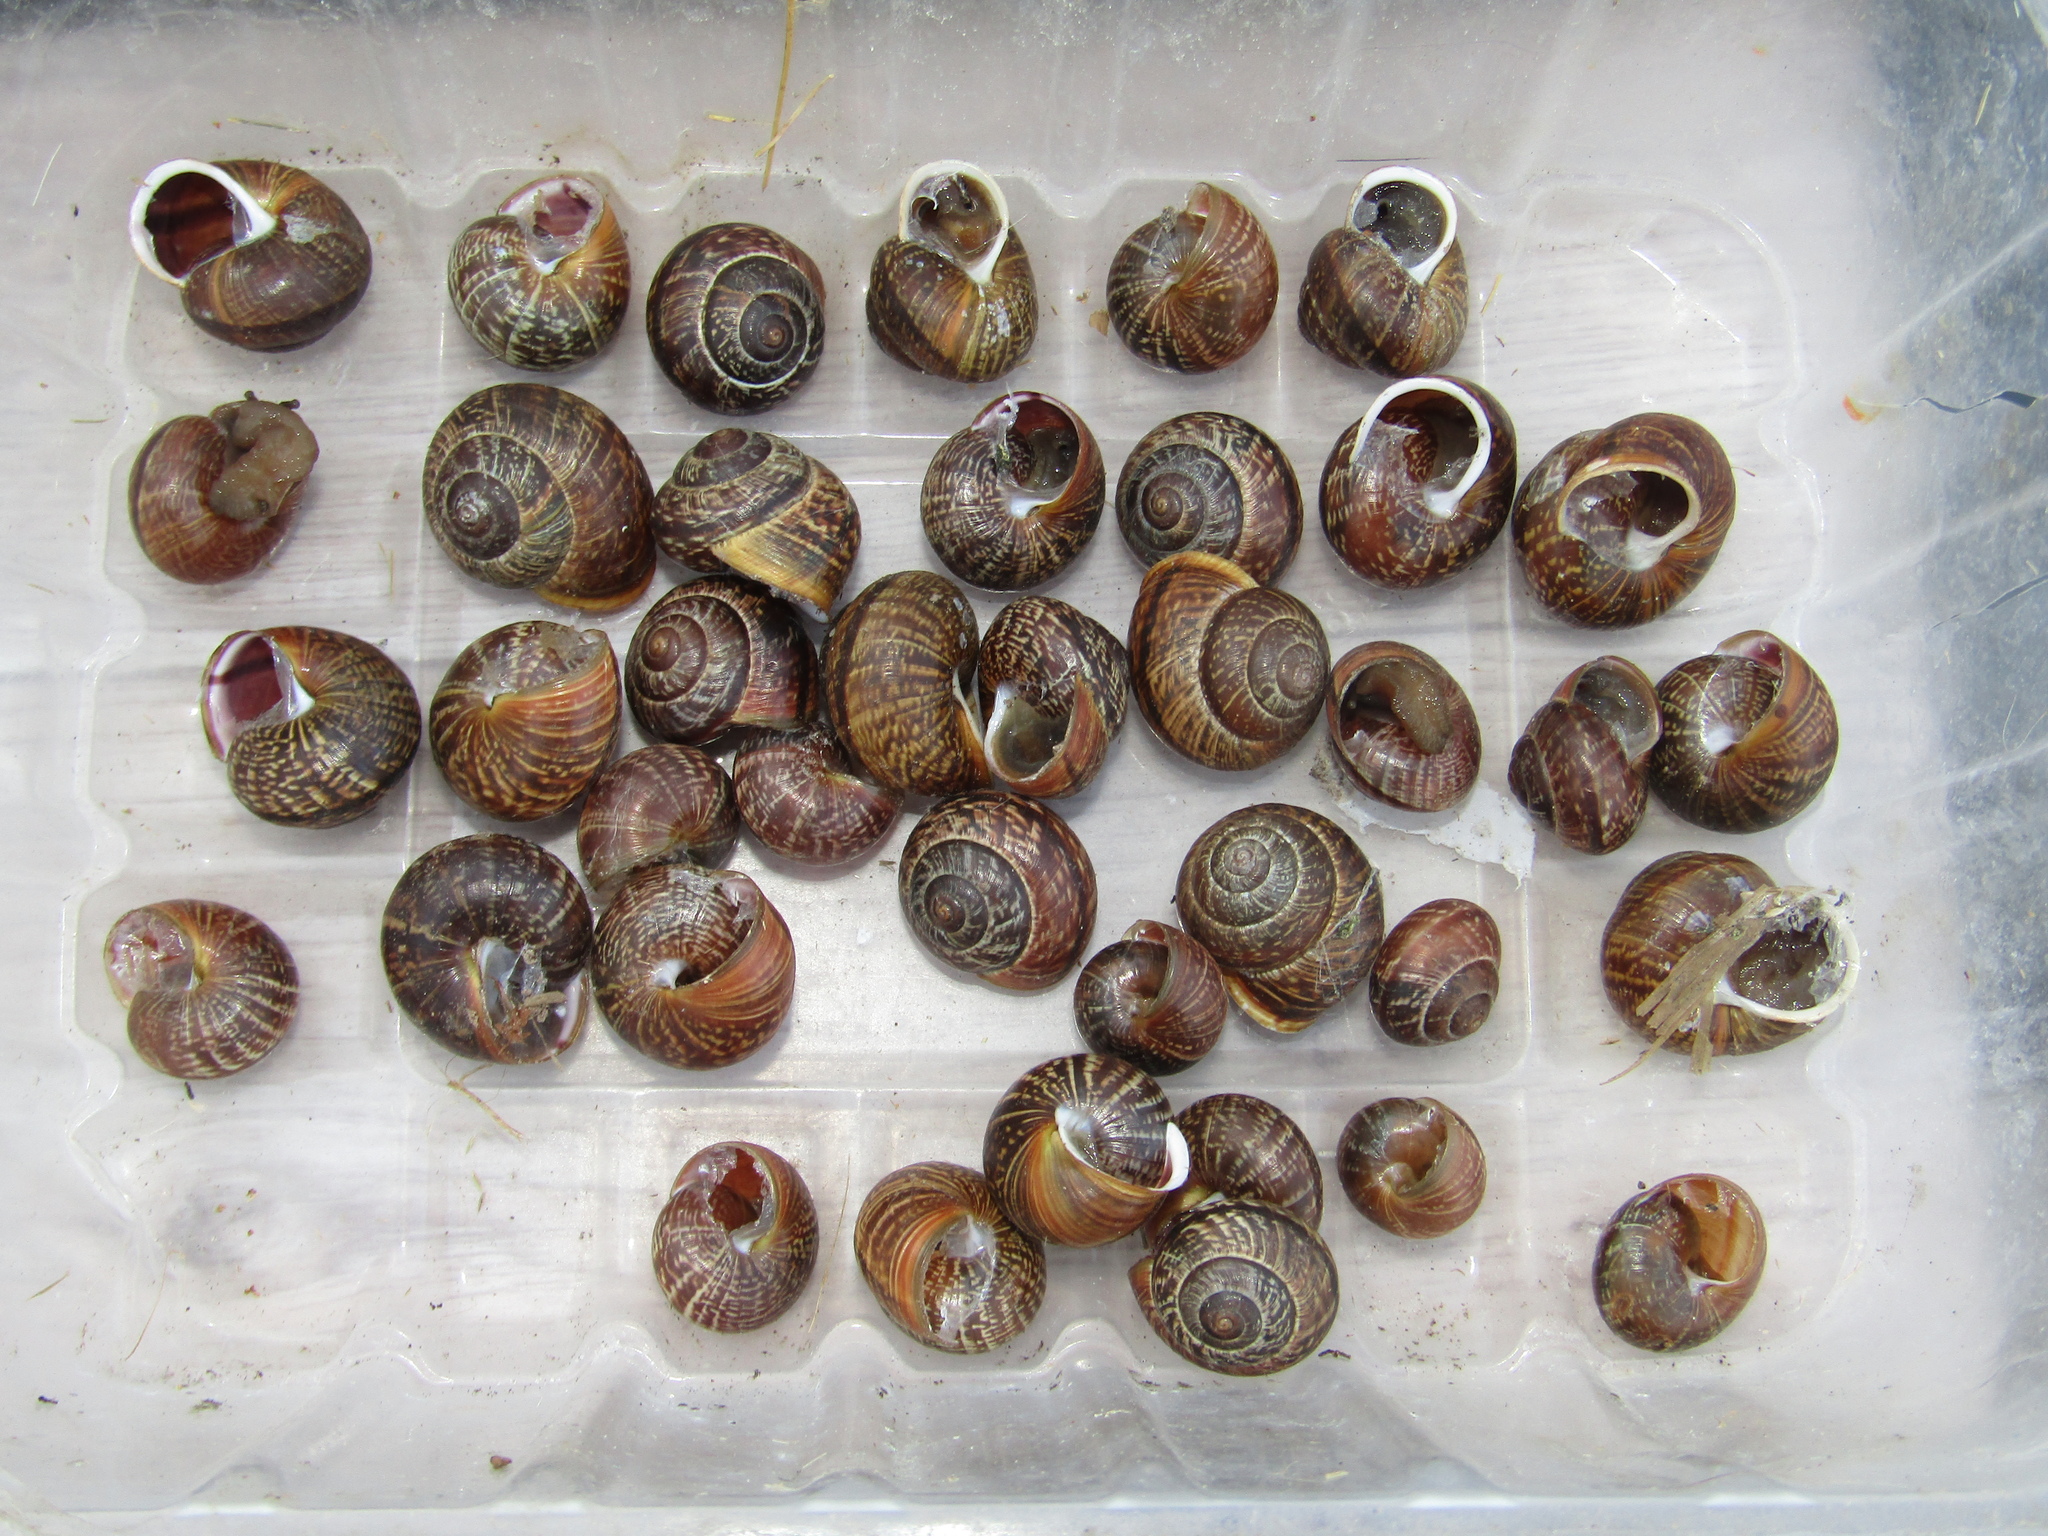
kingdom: Animalia
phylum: Mollusca
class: Gastropoda
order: Stylommatophora
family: Helicidae
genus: Arianta
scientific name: Arianta arbustorum
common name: Copse snail
